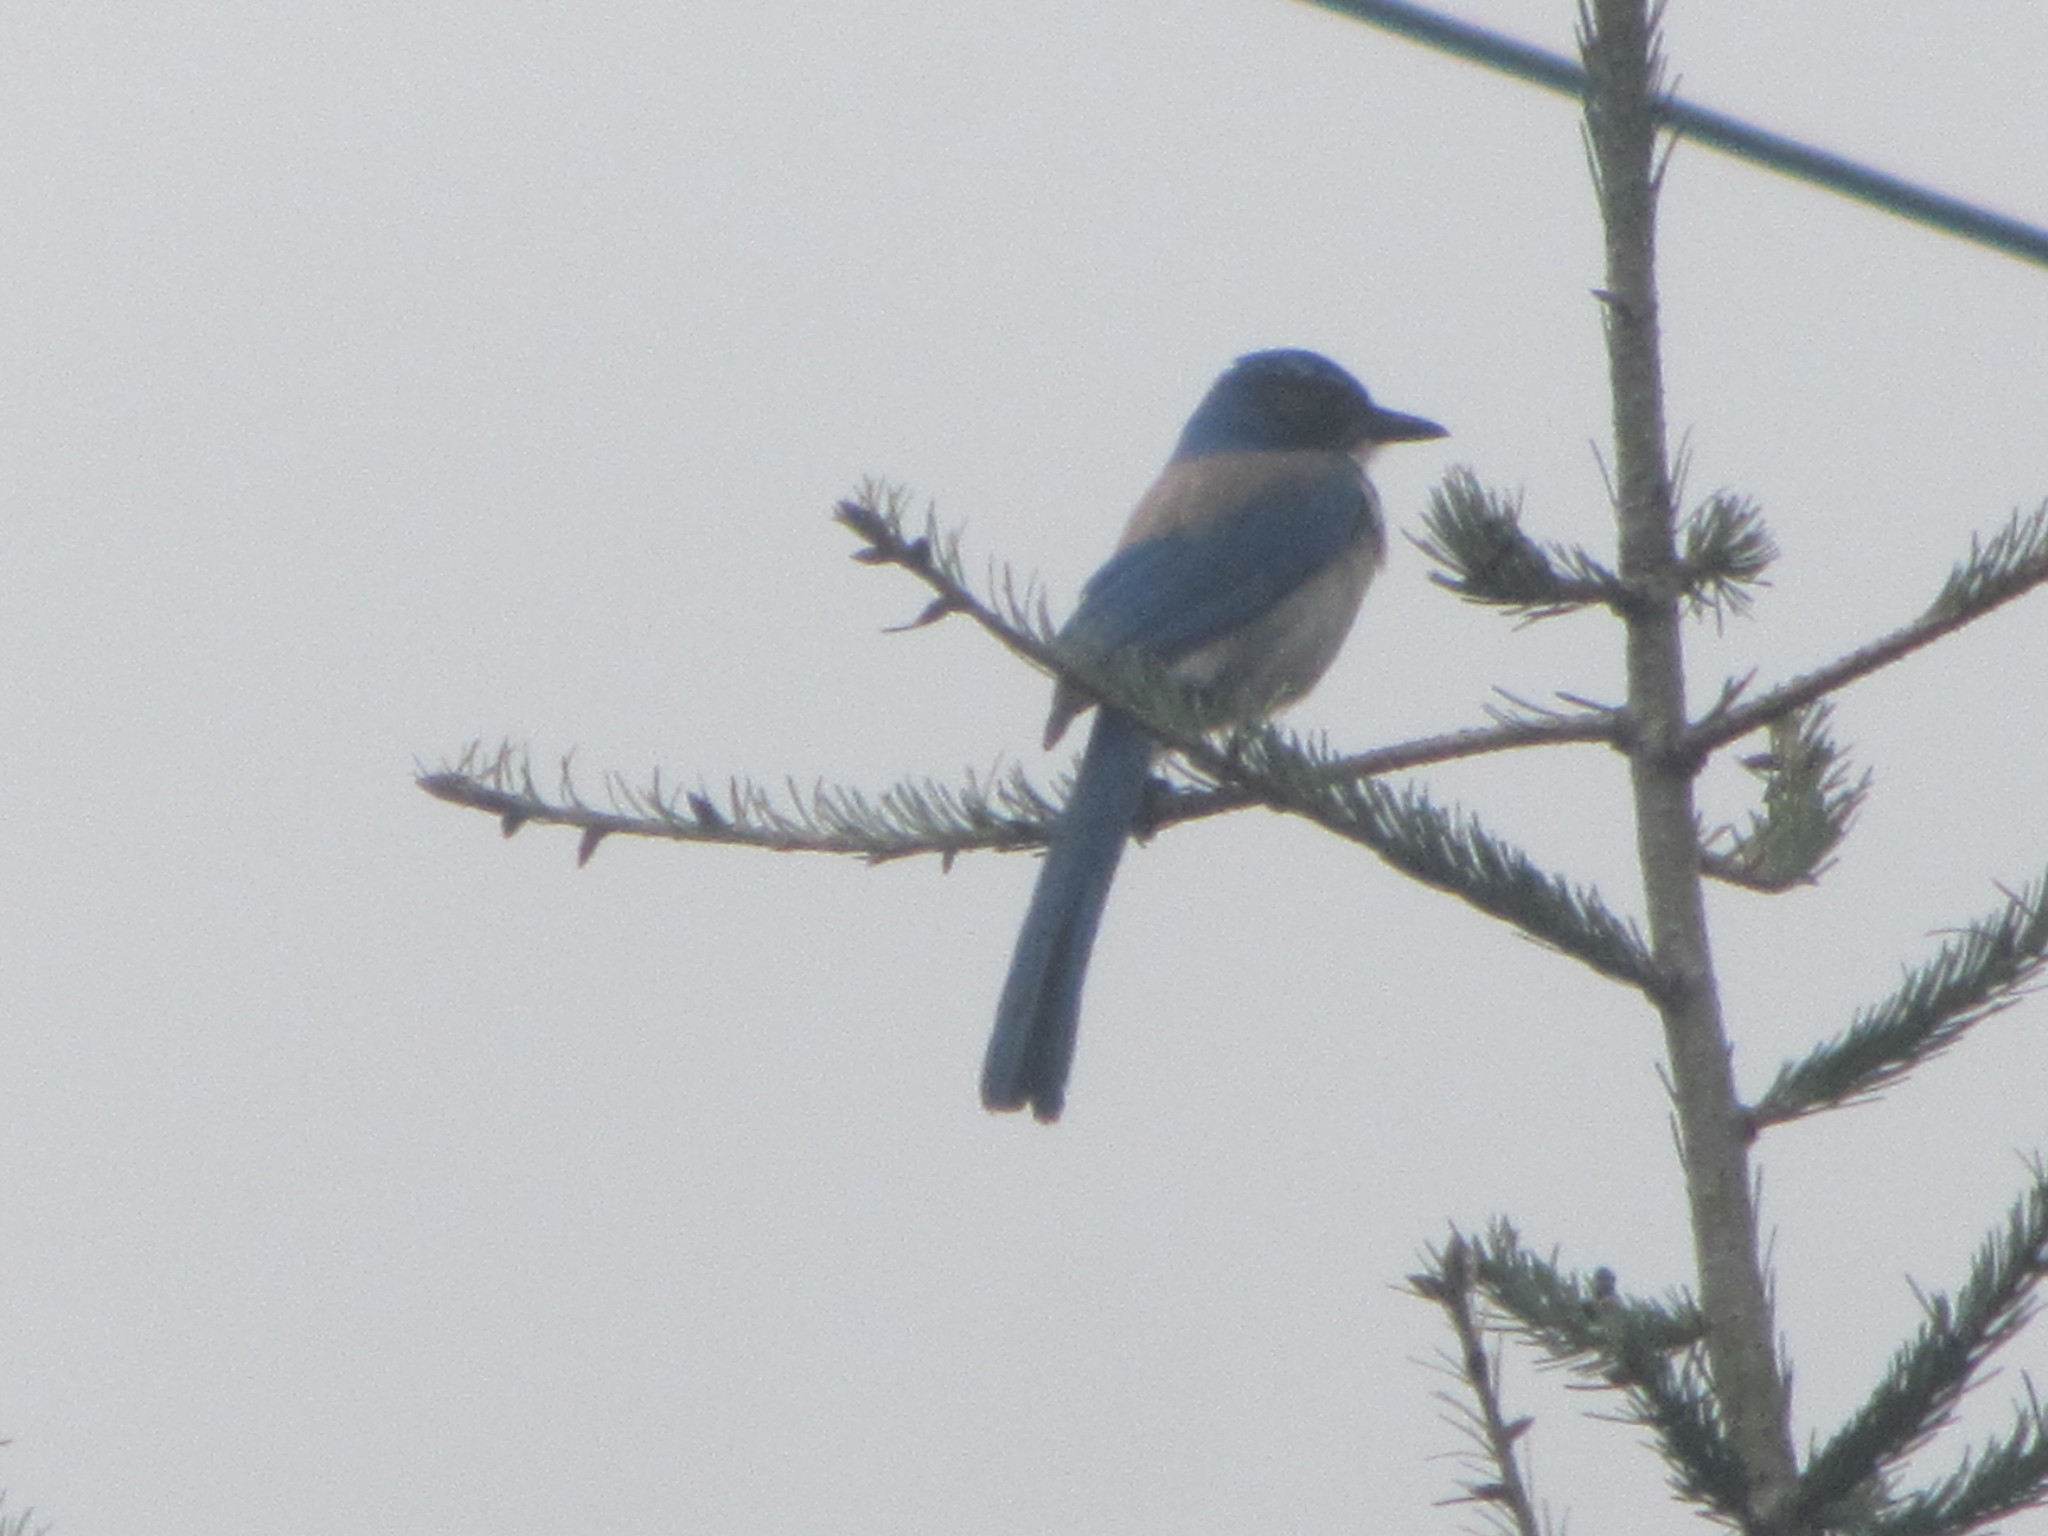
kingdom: Animalia
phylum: Chordata
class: Aves
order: Passeriformes
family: Corvidae
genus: Aphelocoma
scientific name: Aphelocoma californica
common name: California scrub-jay
